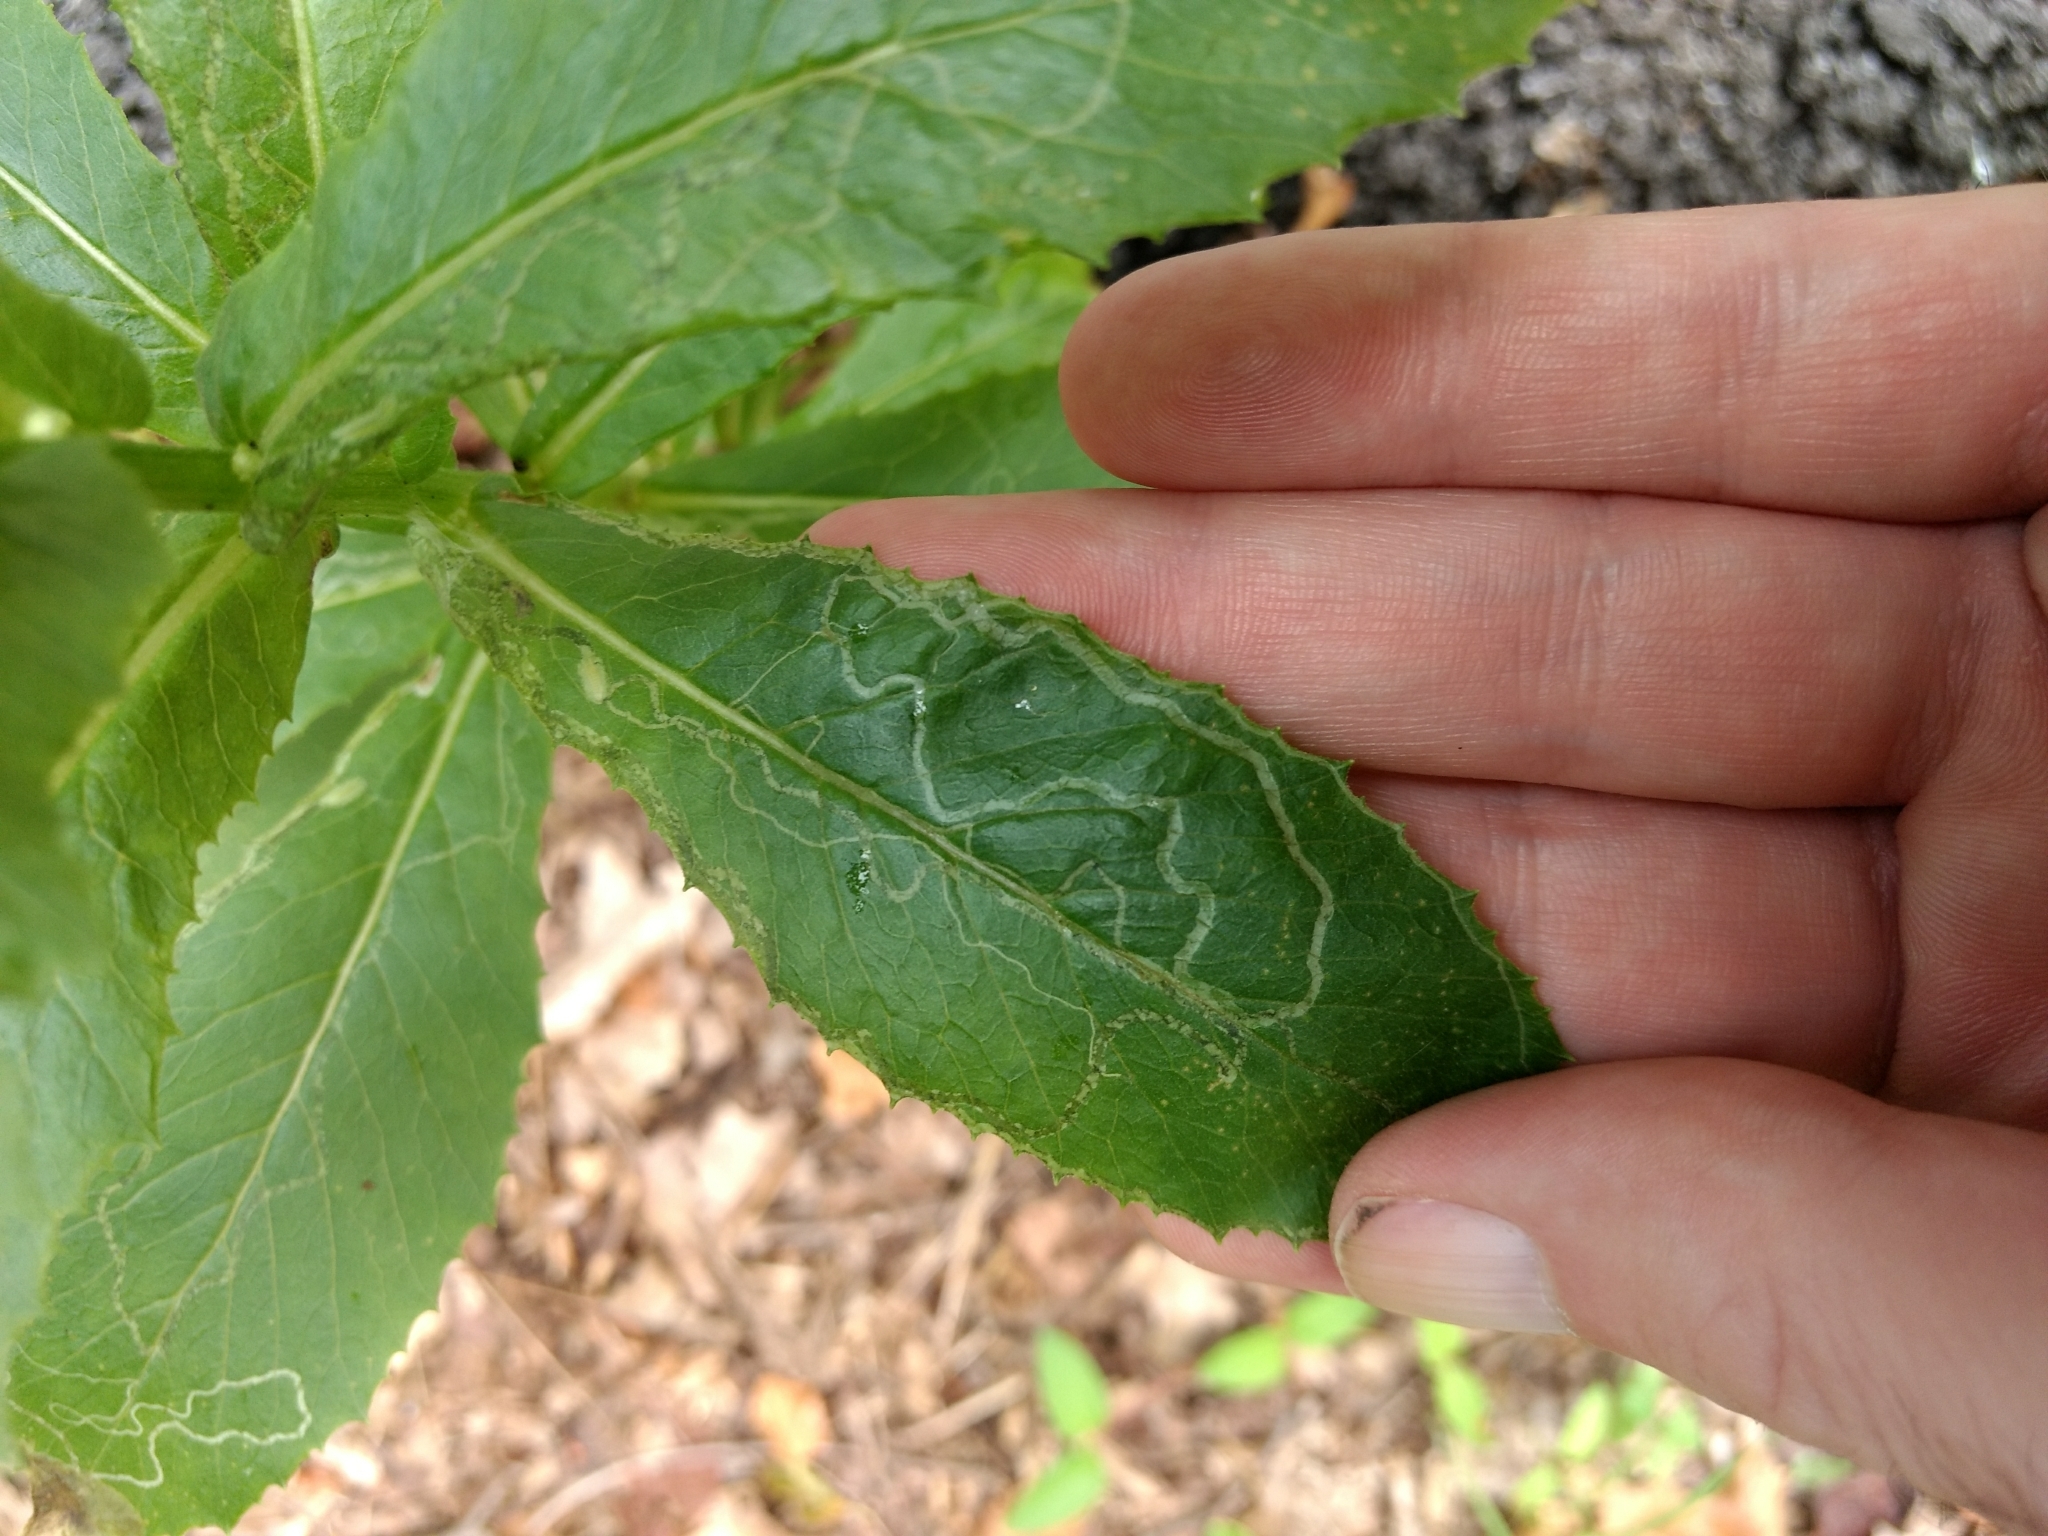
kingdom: Animalia
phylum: Arthropoda
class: Insecta
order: Lepidoptera
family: Gracillariidae
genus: Phyllocnistis
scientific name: Phyllocnistis insignis
